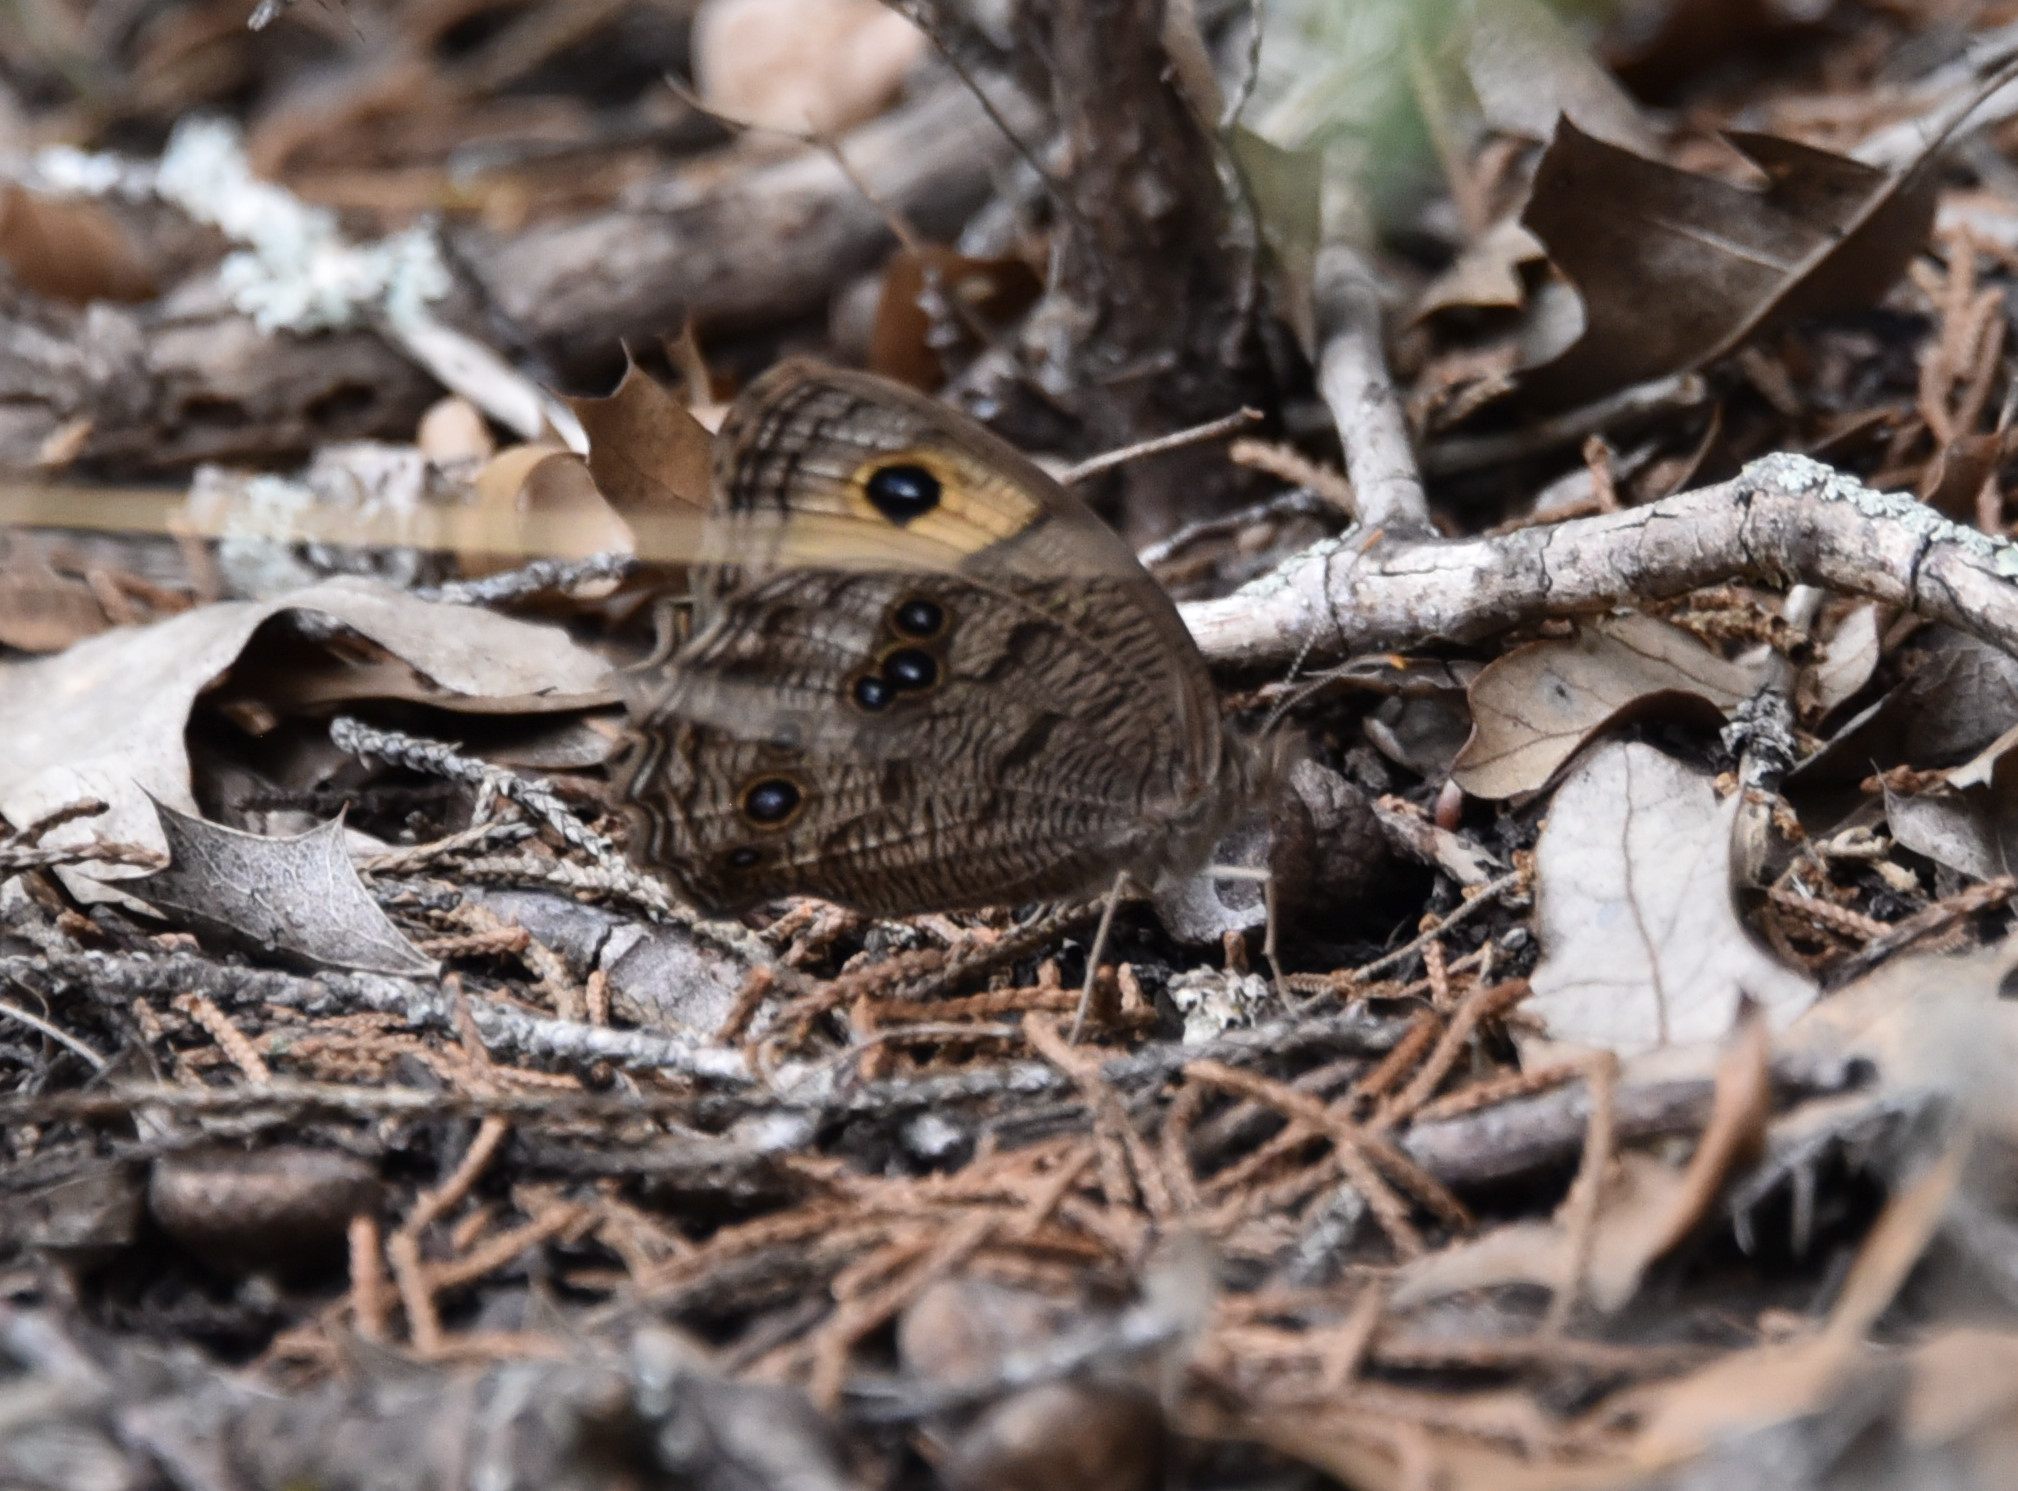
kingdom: Animalia
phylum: Arthropoda
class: Insecta
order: Lepidoptera
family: Nymphalidae
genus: Cercyonis
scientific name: Cercyonis pegala
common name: Common wood-nymph
